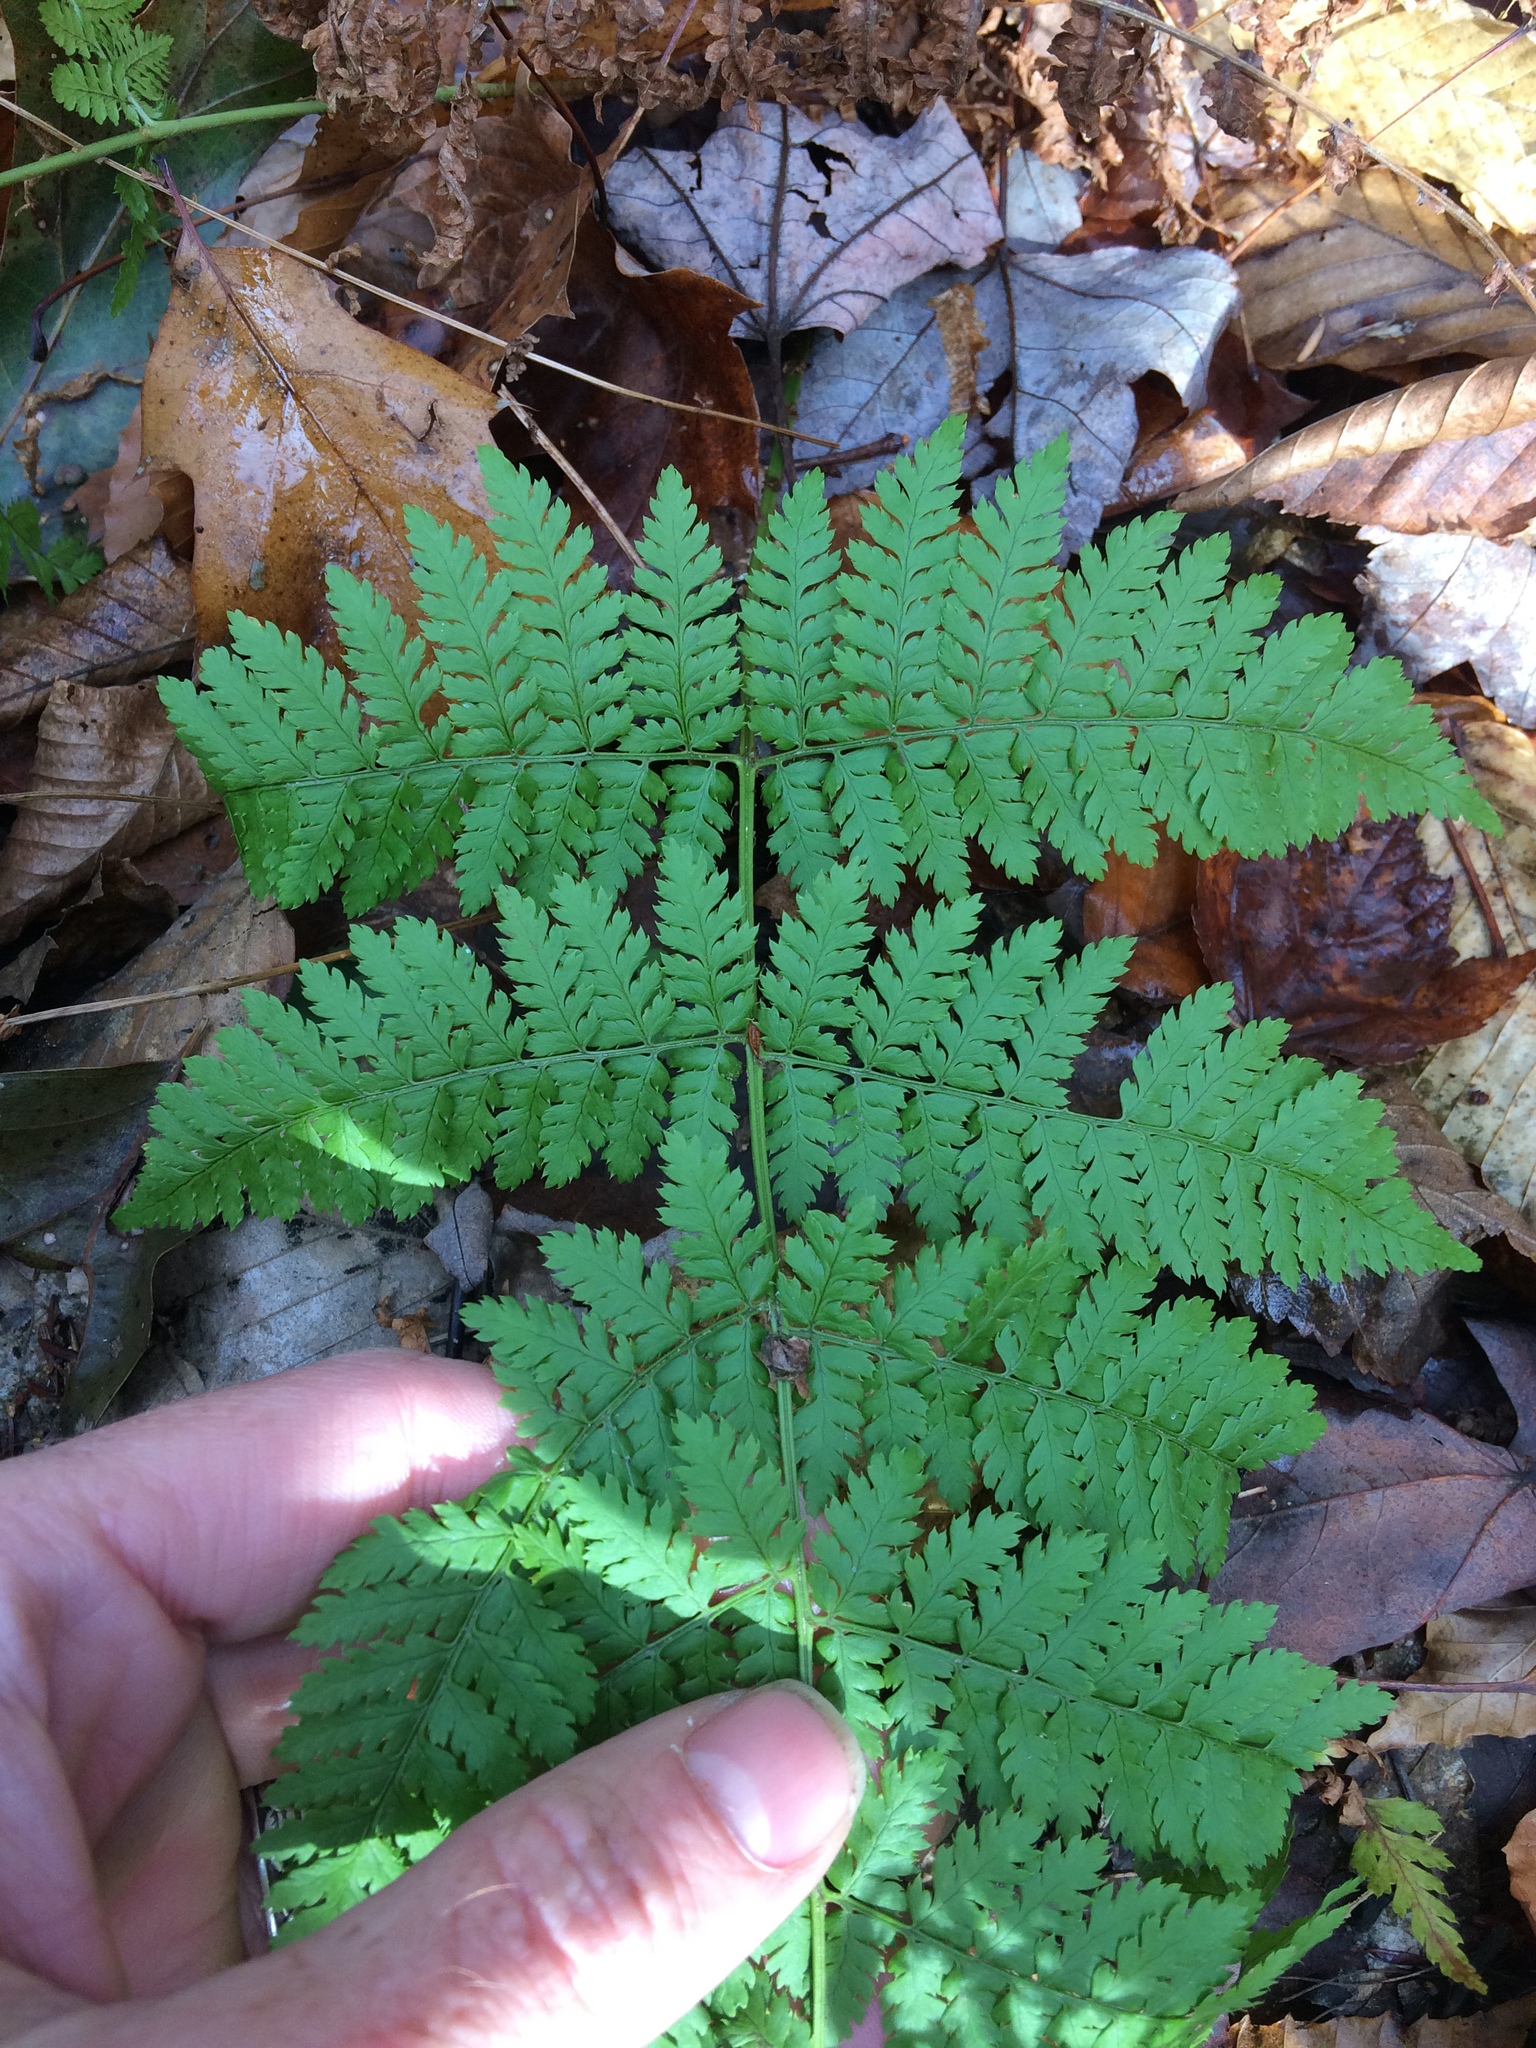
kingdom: Plantae
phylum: Tracheophyta
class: Polypodiopsida
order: Polypodiales
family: Dryopteridaceae
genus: Dryopteris
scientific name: Dryopteris intermedia
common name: Evergreen wood fern
